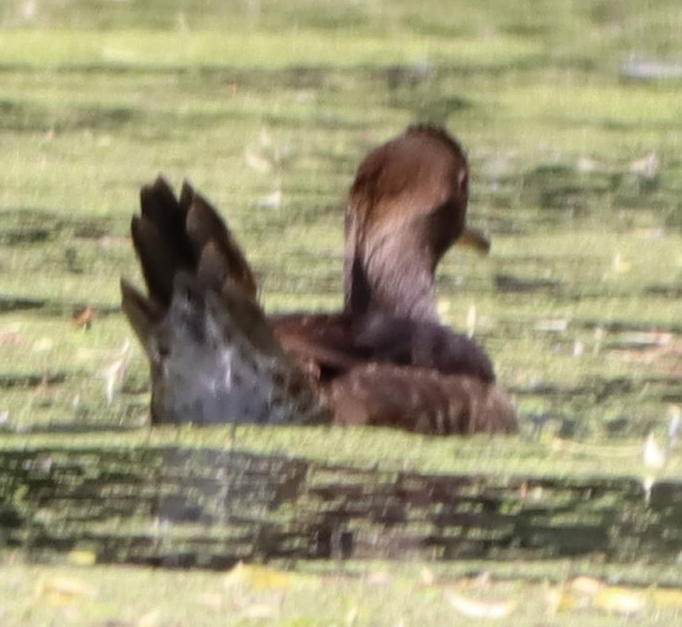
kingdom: Animalia
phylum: Chordata
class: Aves
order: Anseriformes
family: Anatidae
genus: Lophodytes
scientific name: Lophodytes cucullatus
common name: Hooded merganser
